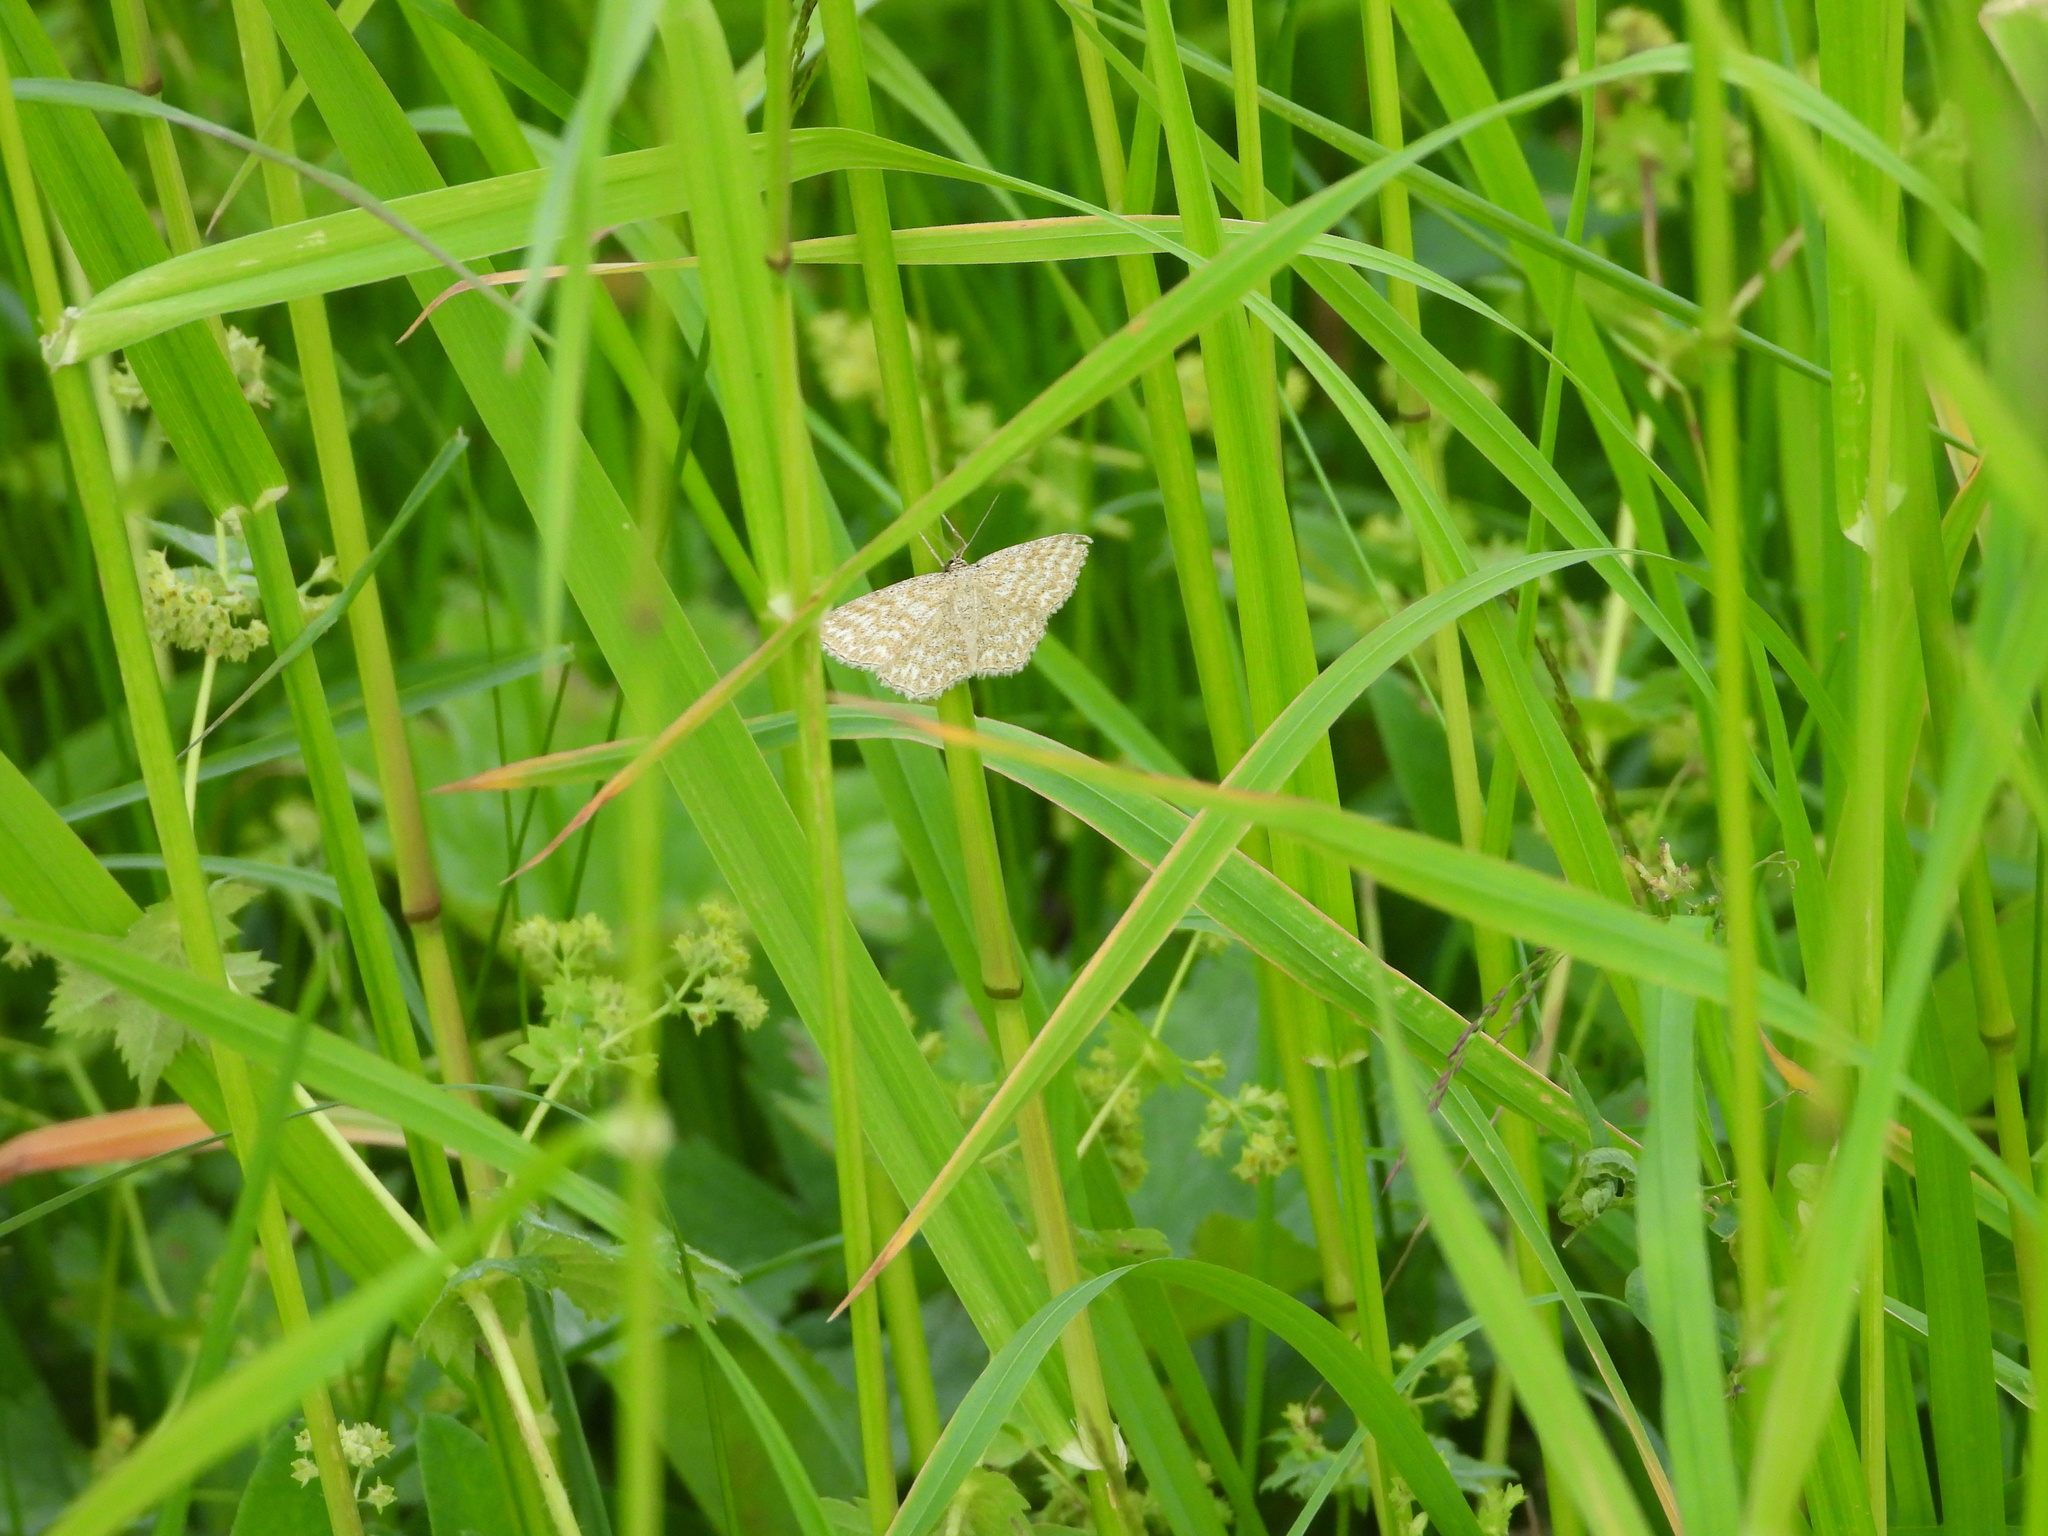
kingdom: Animalia
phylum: Arthropoda
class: Insecta
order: Lepidoptera
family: Geometridae
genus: Scopula
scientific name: Scopula immorata
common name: Lewes wave
